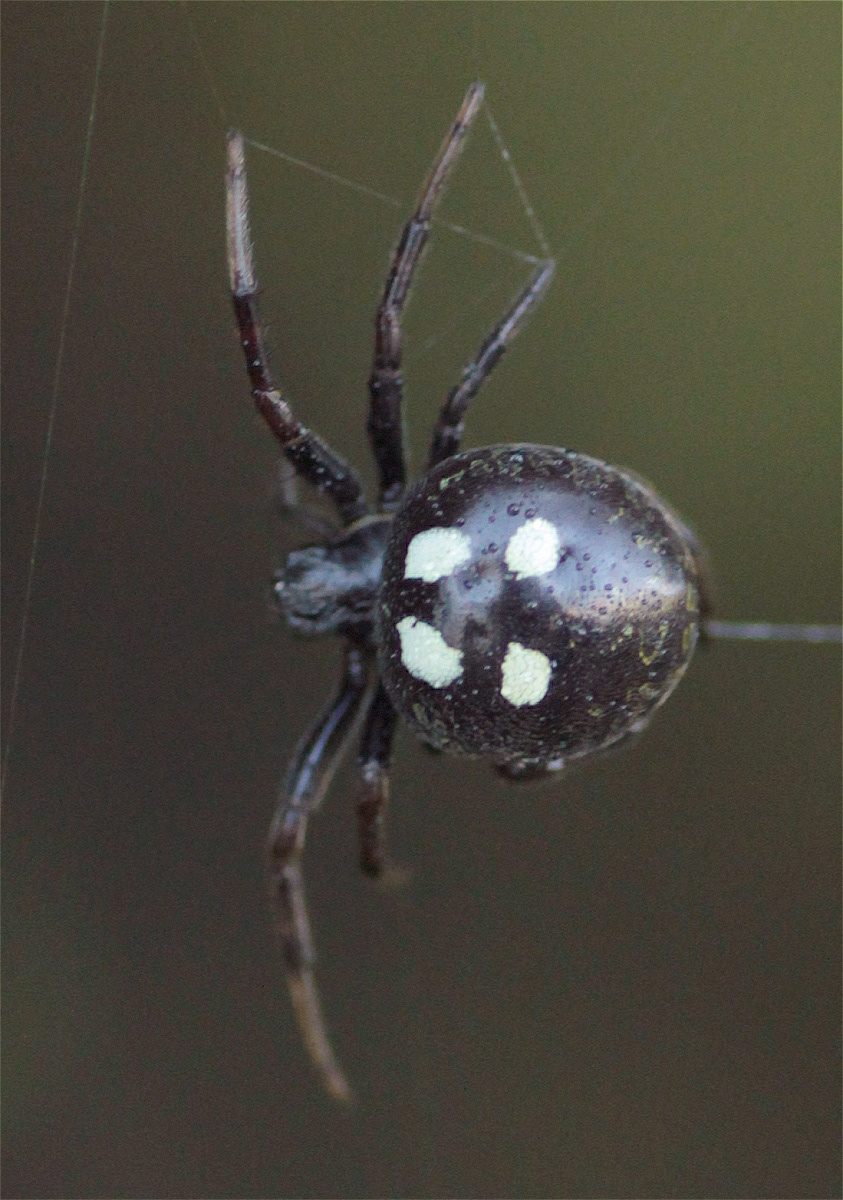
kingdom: Animalia
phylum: Arthropoda
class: Arachnida
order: Araneae
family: Araneidae
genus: Araneus
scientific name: Araneus granadensis
